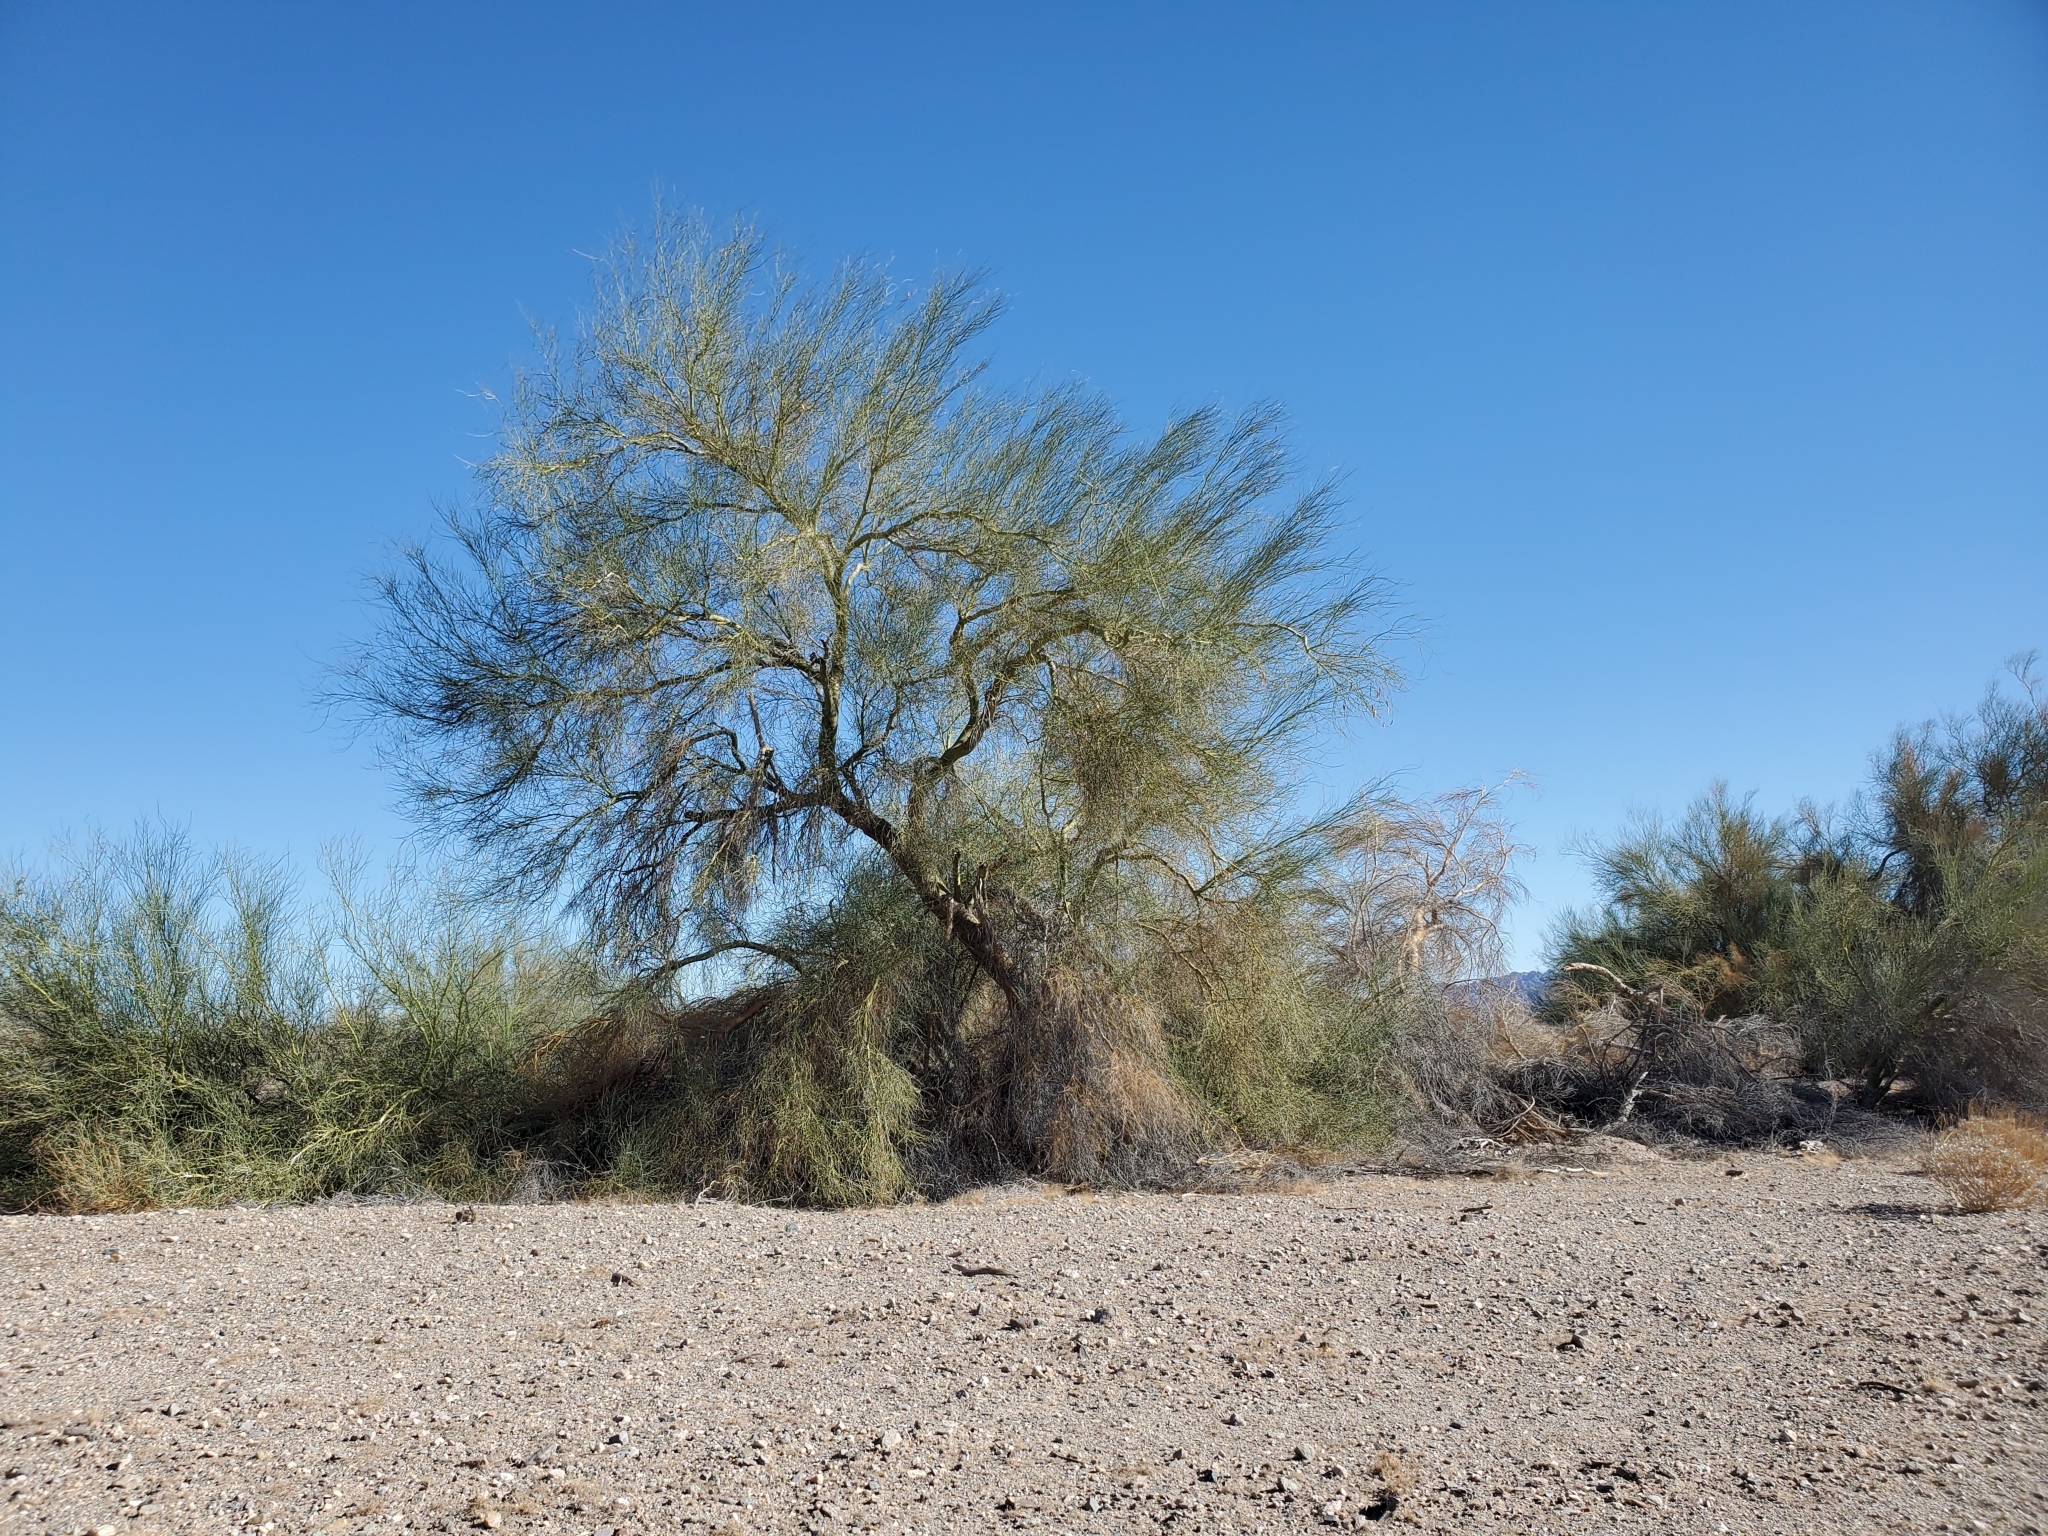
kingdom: Plantae
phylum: Tracheophyta
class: Magnoliopsida
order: Fabales
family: Fabaceae
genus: Parkinsonia
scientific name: Parkinsonia florida
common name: Blue paloverde
